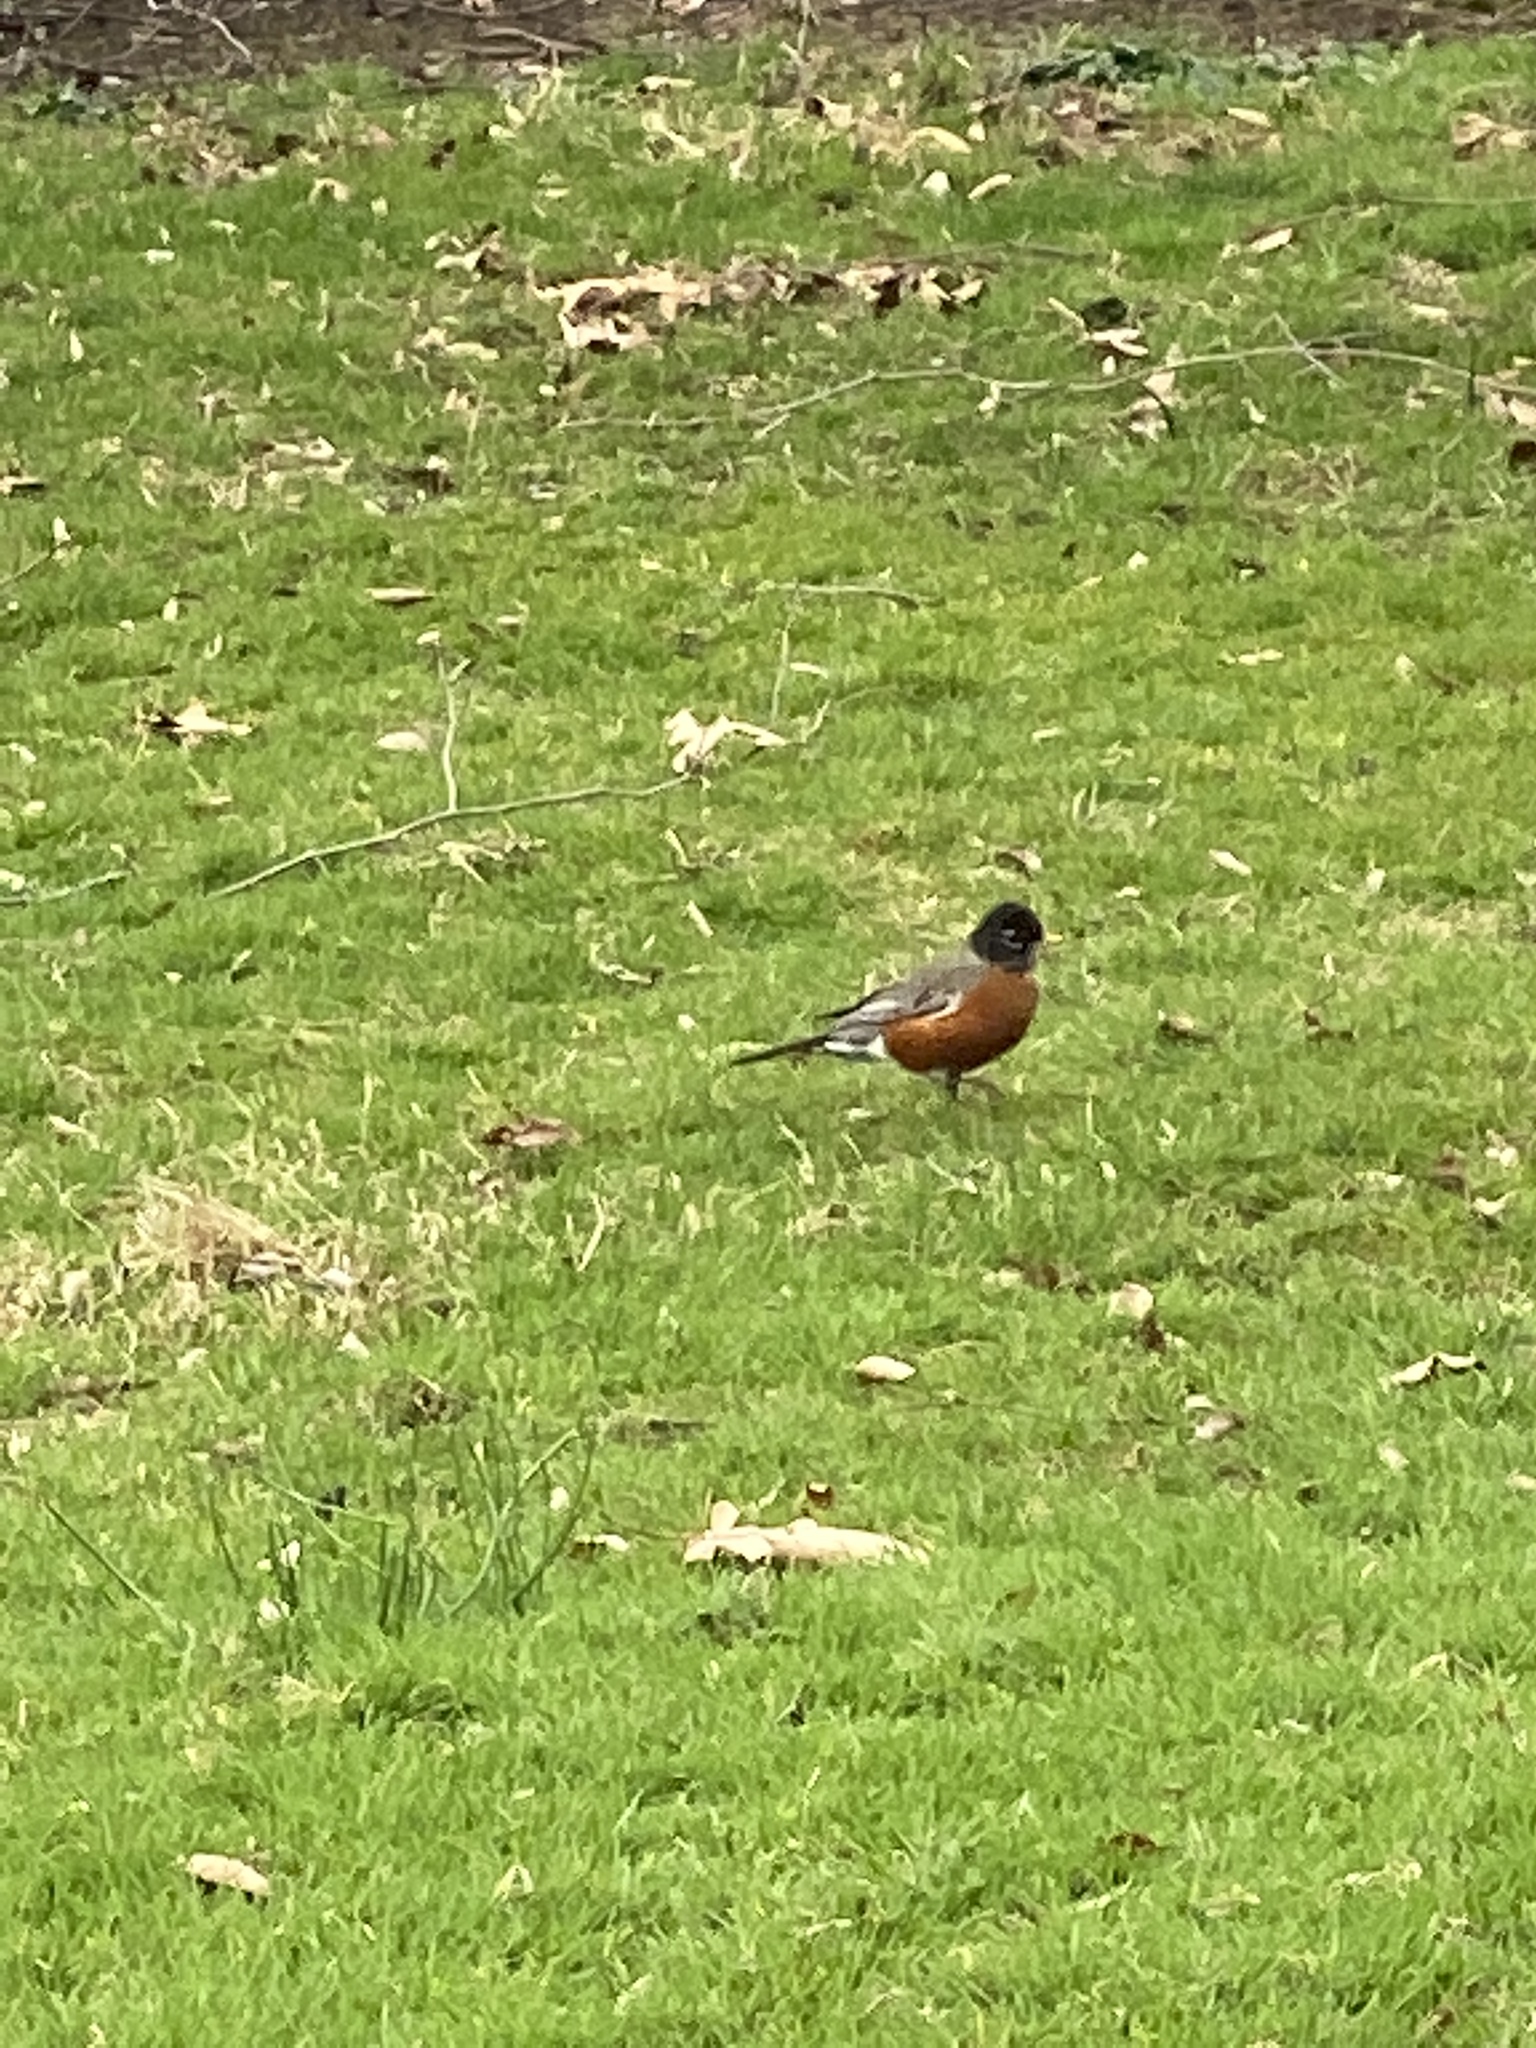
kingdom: Animalia
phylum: Chordata
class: Aves
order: Passeriformes
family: Turdidae
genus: Turdus
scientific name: Turdus migratorius
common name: American robin
